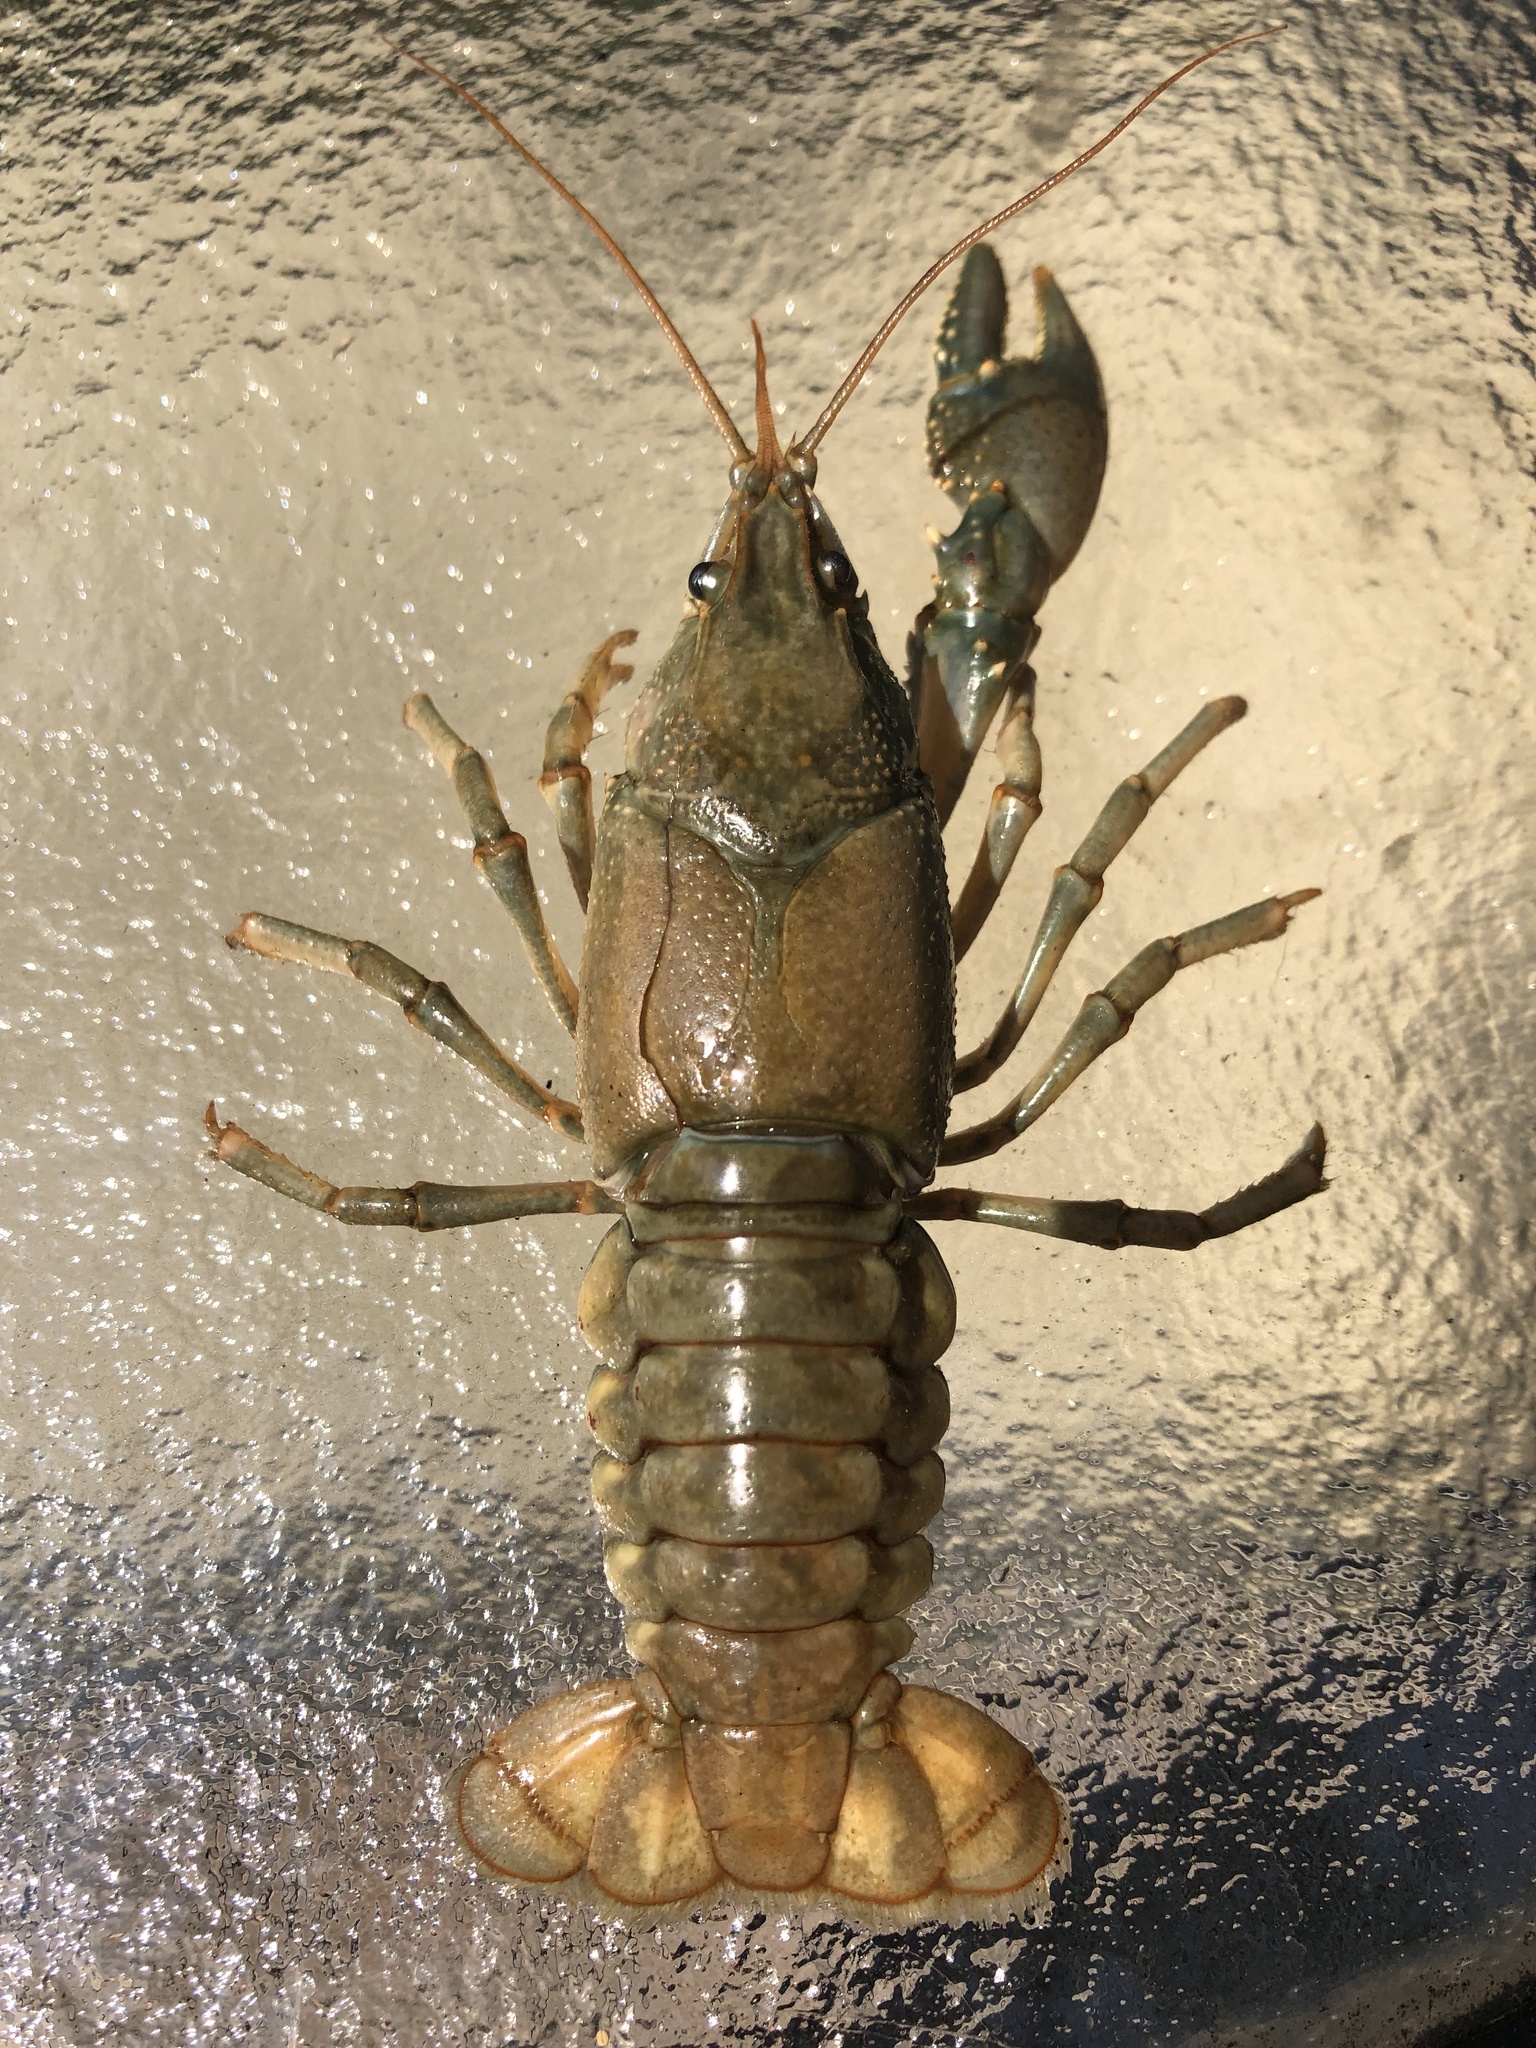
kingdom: Animalia
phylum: Arthropoda
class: Malacostraca
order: Decapoda
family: Cambaridae
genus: Faxonius
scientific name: Faxonius virilis
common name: Virile crayfish
